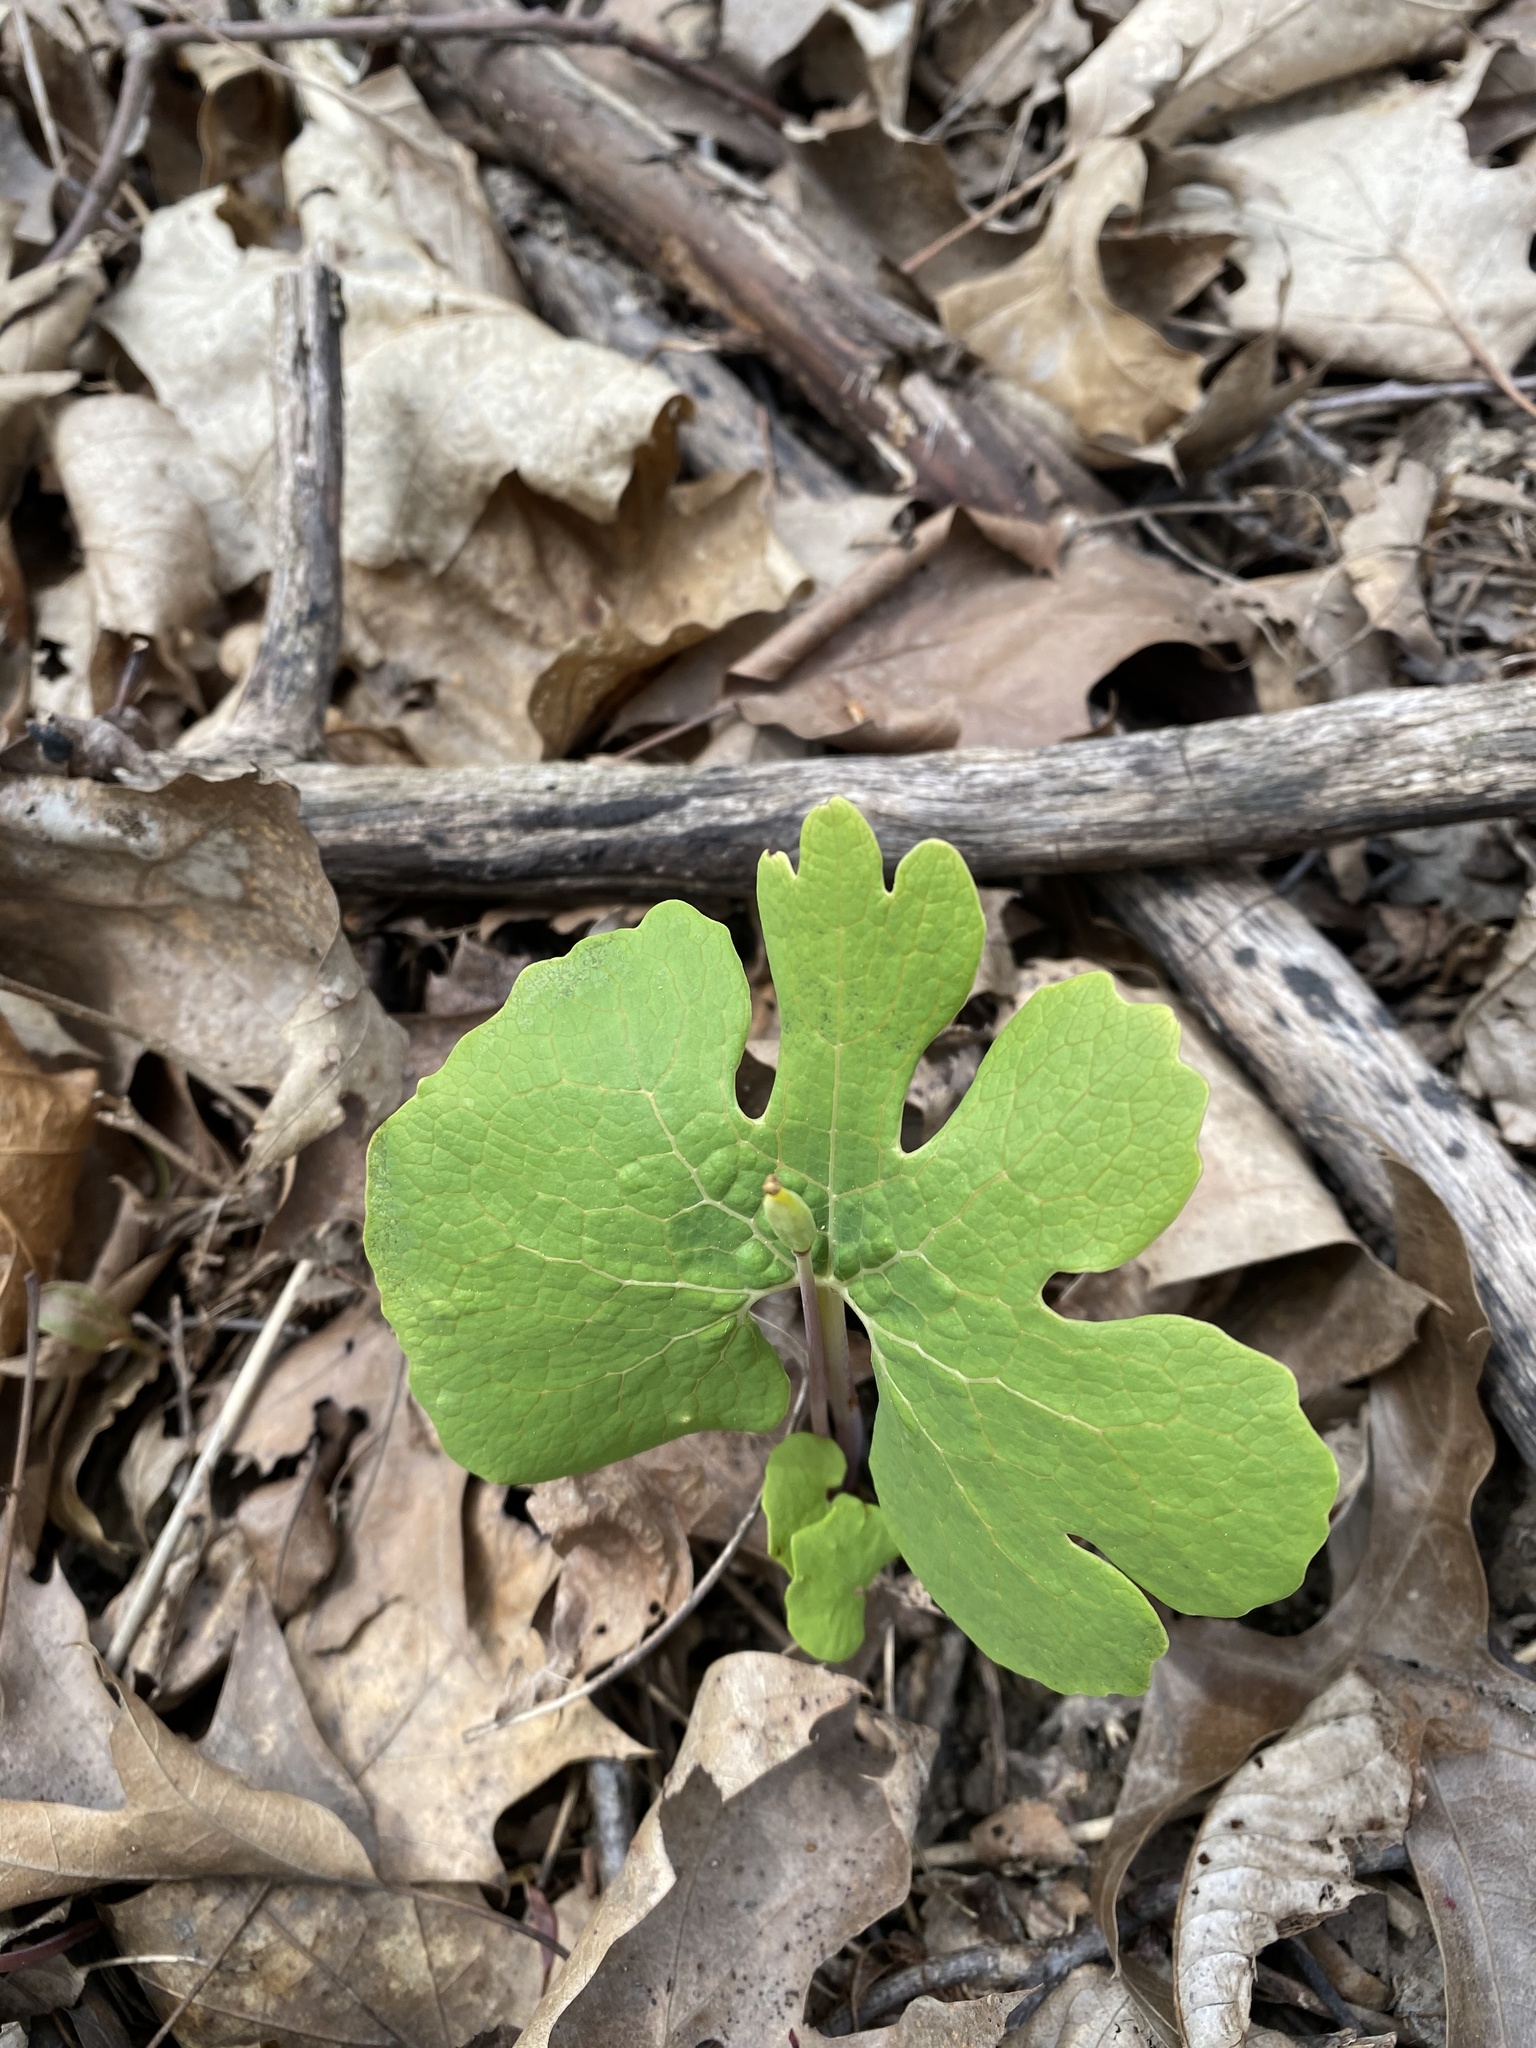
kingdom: Plantae
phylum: Tracheophyta
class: Magnoliopsida
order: Ranunculales
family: Papaveraceae
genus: Sanguinaria
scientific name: Sanguinaria canadensis
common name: Bloodroot
